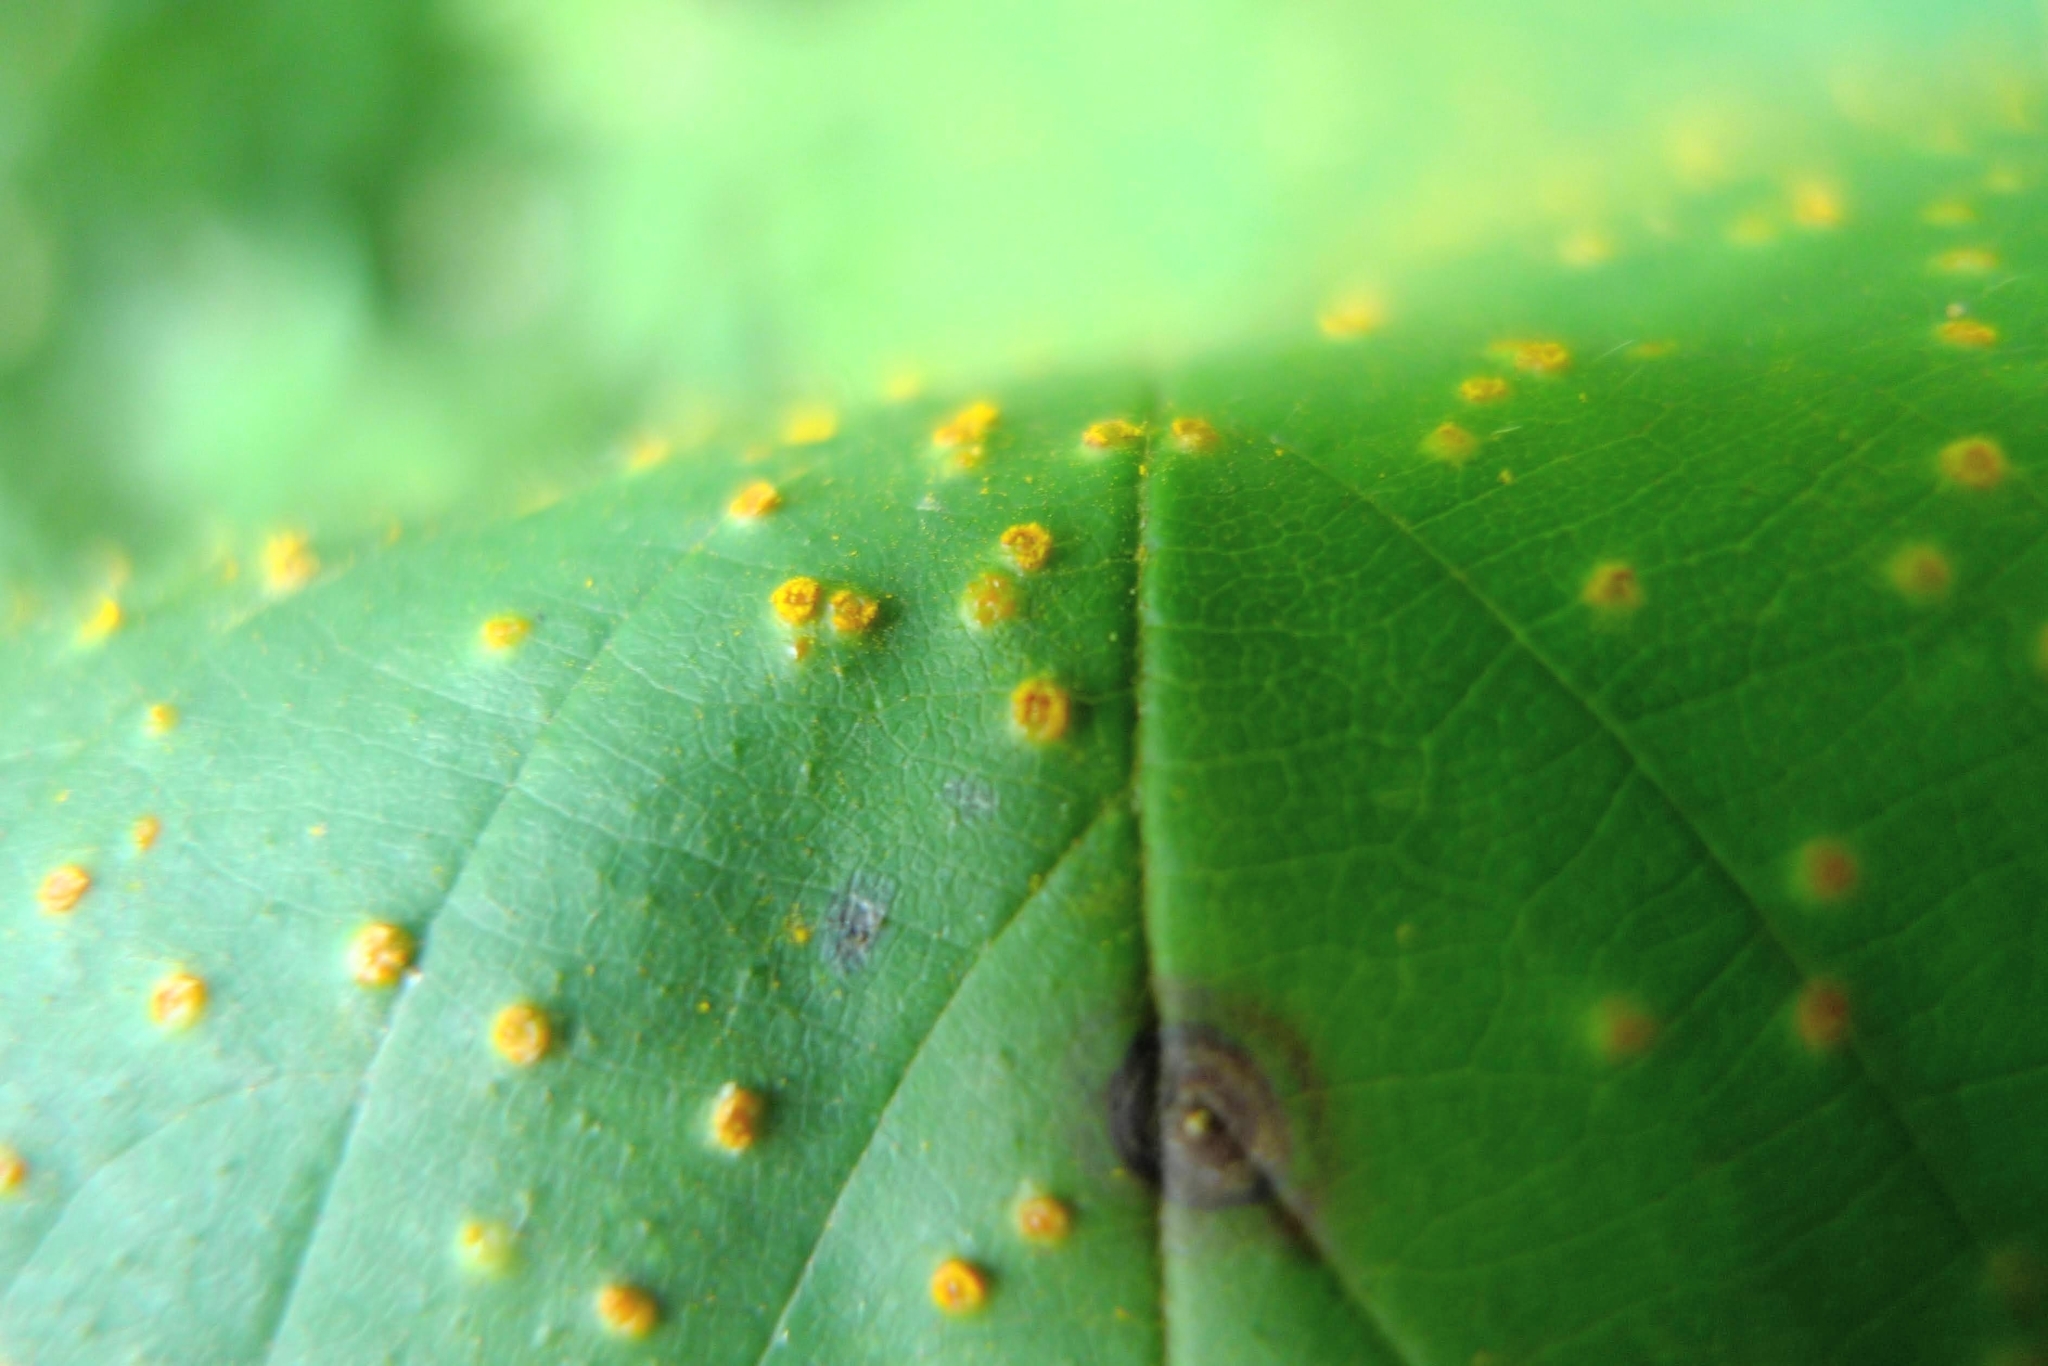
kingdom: Fungi
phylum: Basidiomycota
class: Pucciniomycetes
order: Pucciniales
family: Phragmidiaceae
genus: Kuehneola
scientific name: Kuehneola uredinis
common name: Bramble stem rust
